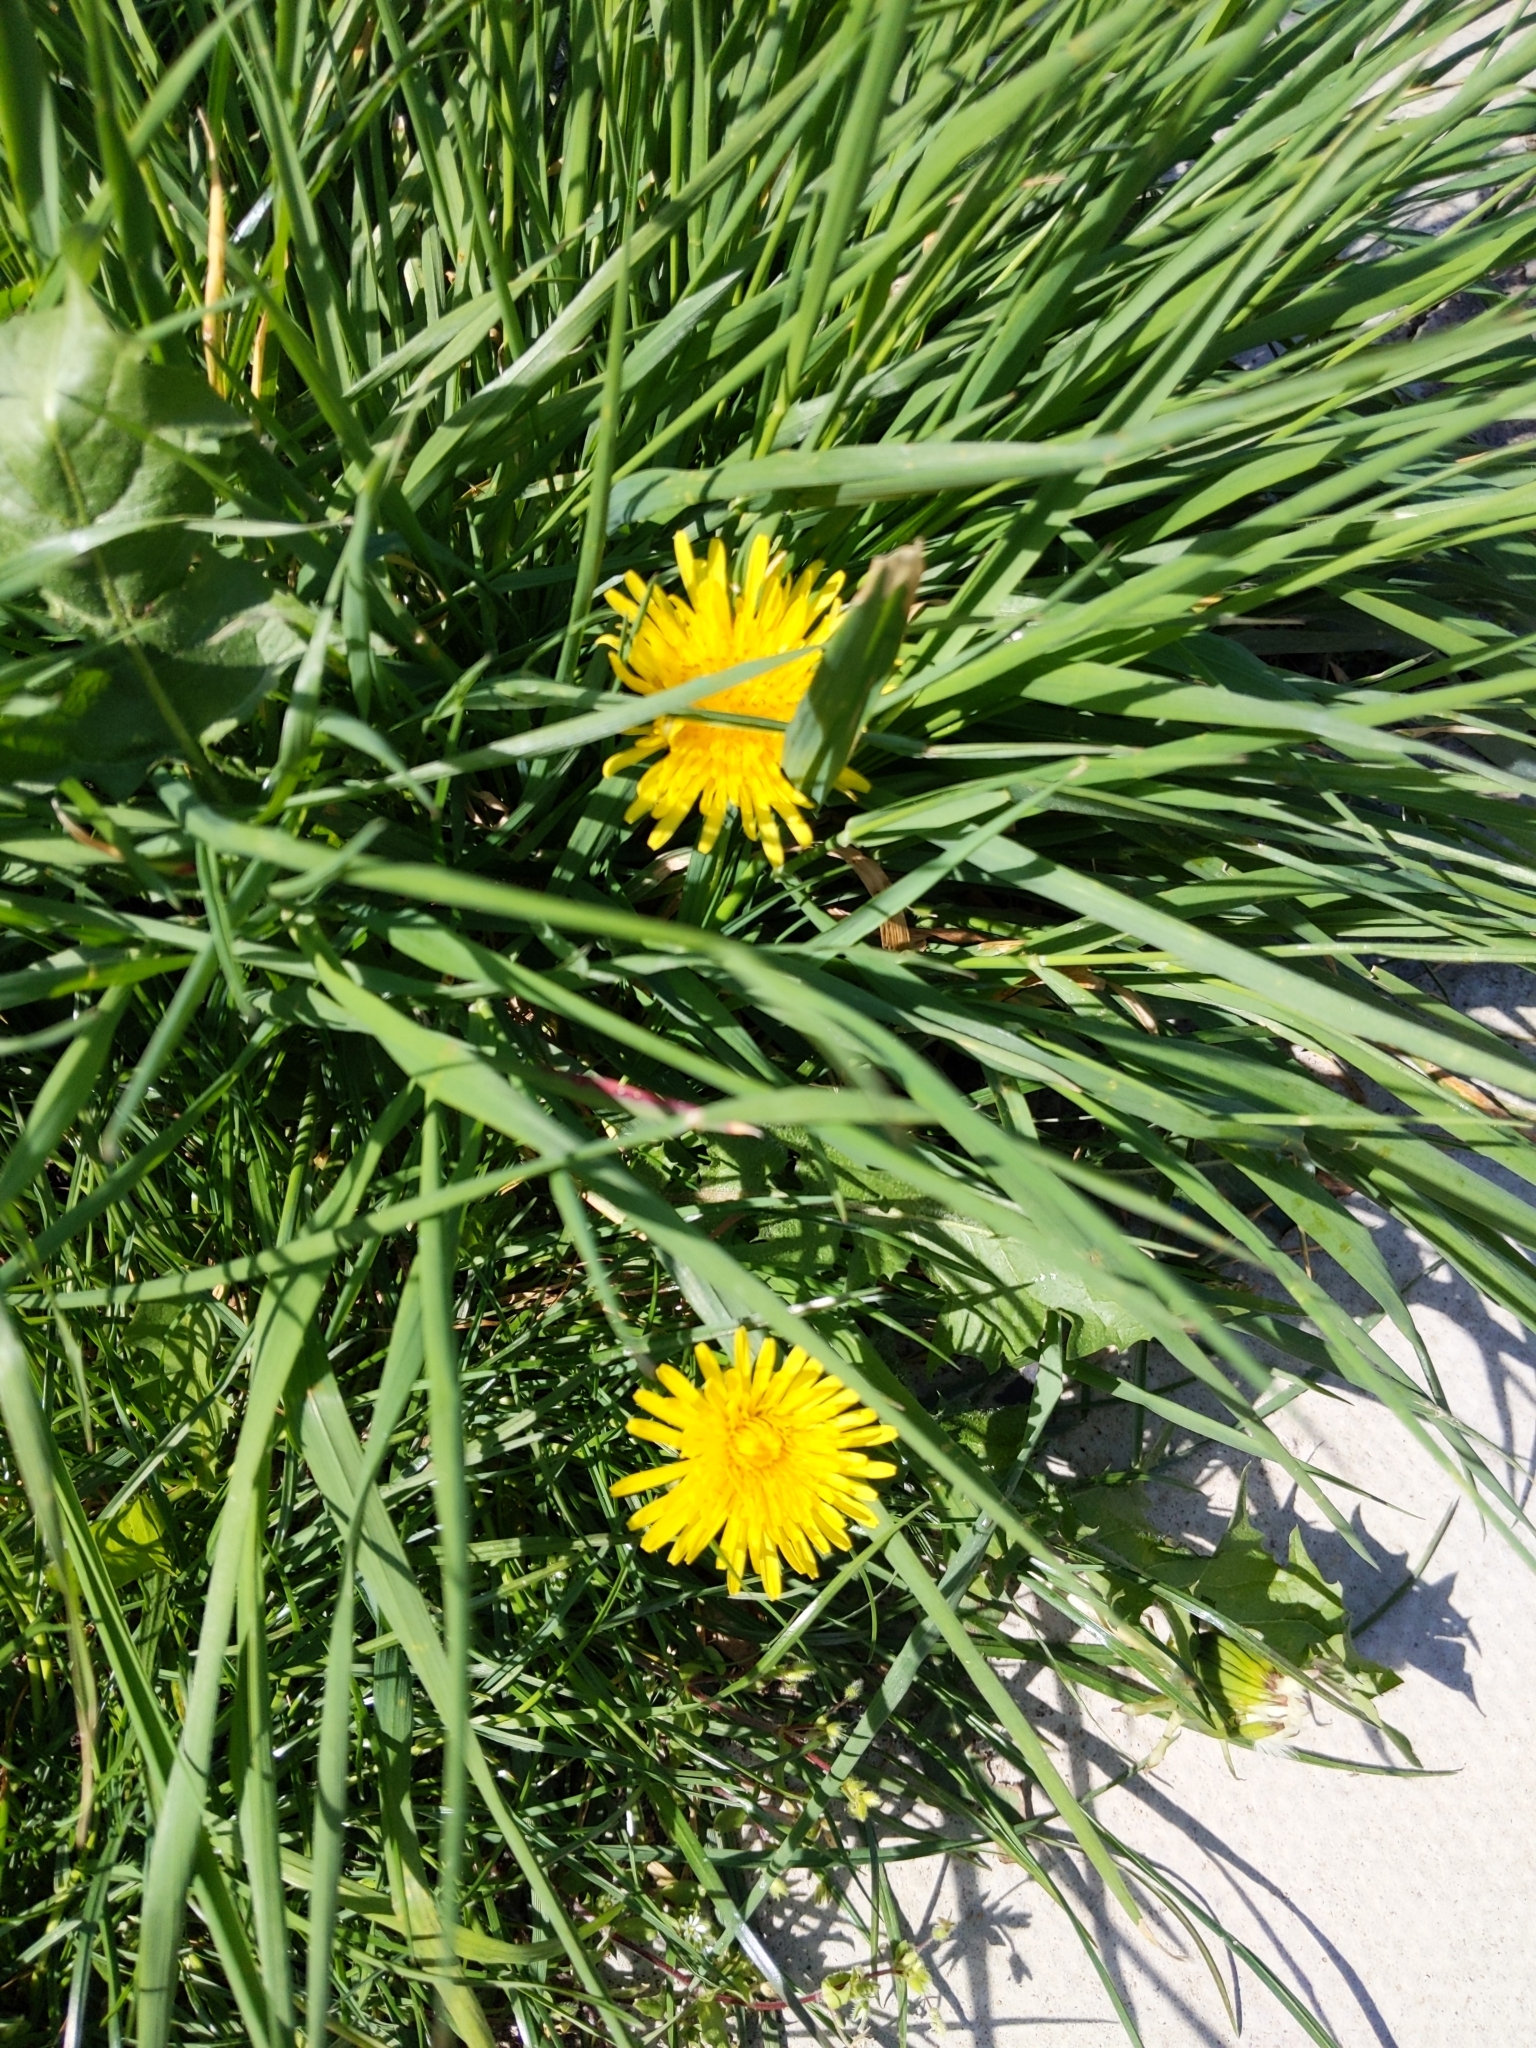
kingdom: Plantae
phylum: Tracheophyta
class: Magnoliopsida
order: Asterales
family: Asteraceae
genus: Taraxacum
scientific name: Taraxacum officinale
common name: Common dandelion
